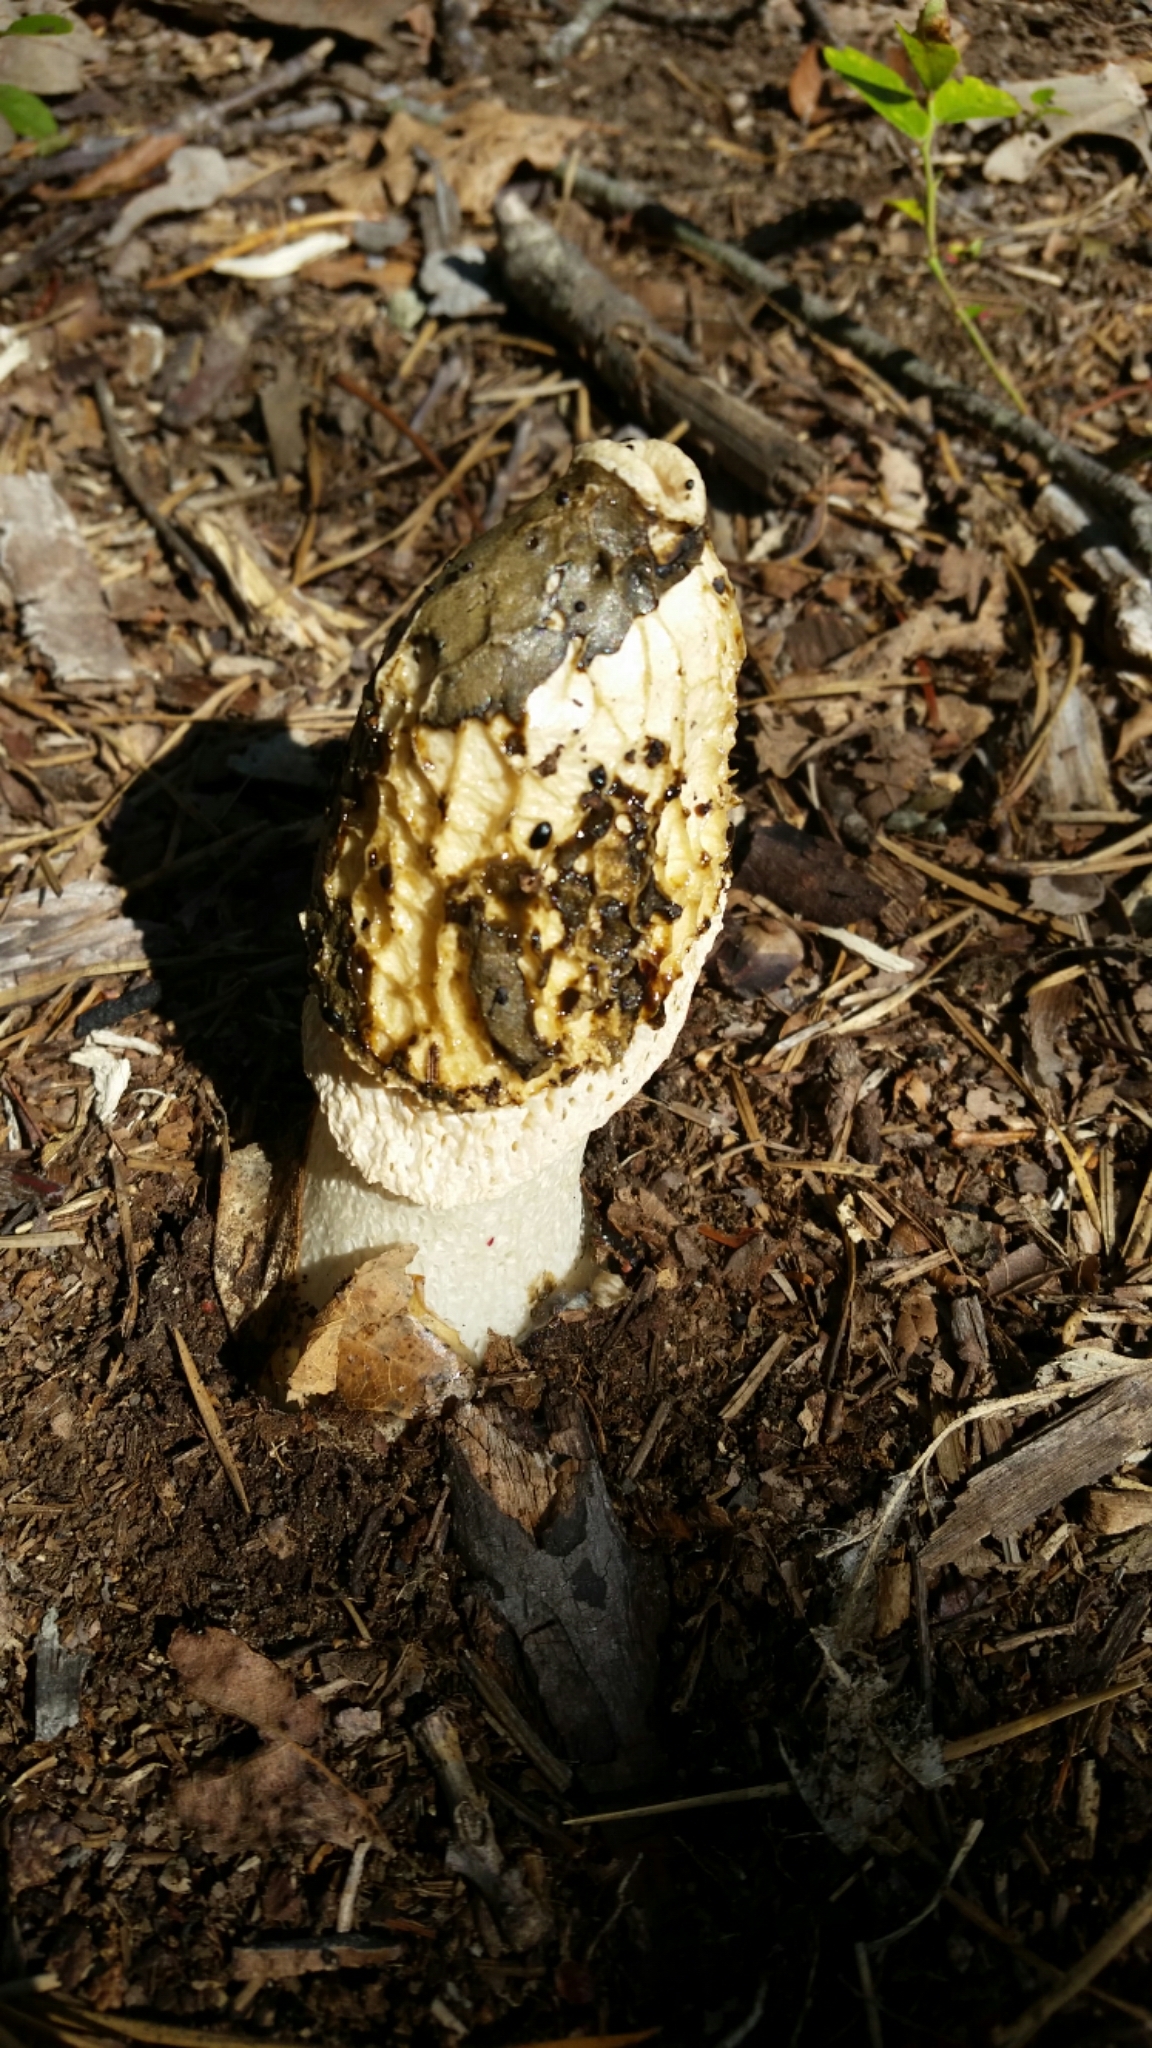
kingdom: Fungi
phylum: Basidiomycota
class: Agaricomycetes
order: Phallales
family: Phallaceae
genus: Phallus
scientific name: Phallus indusiatus
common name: Bridal veil stinkhorn
